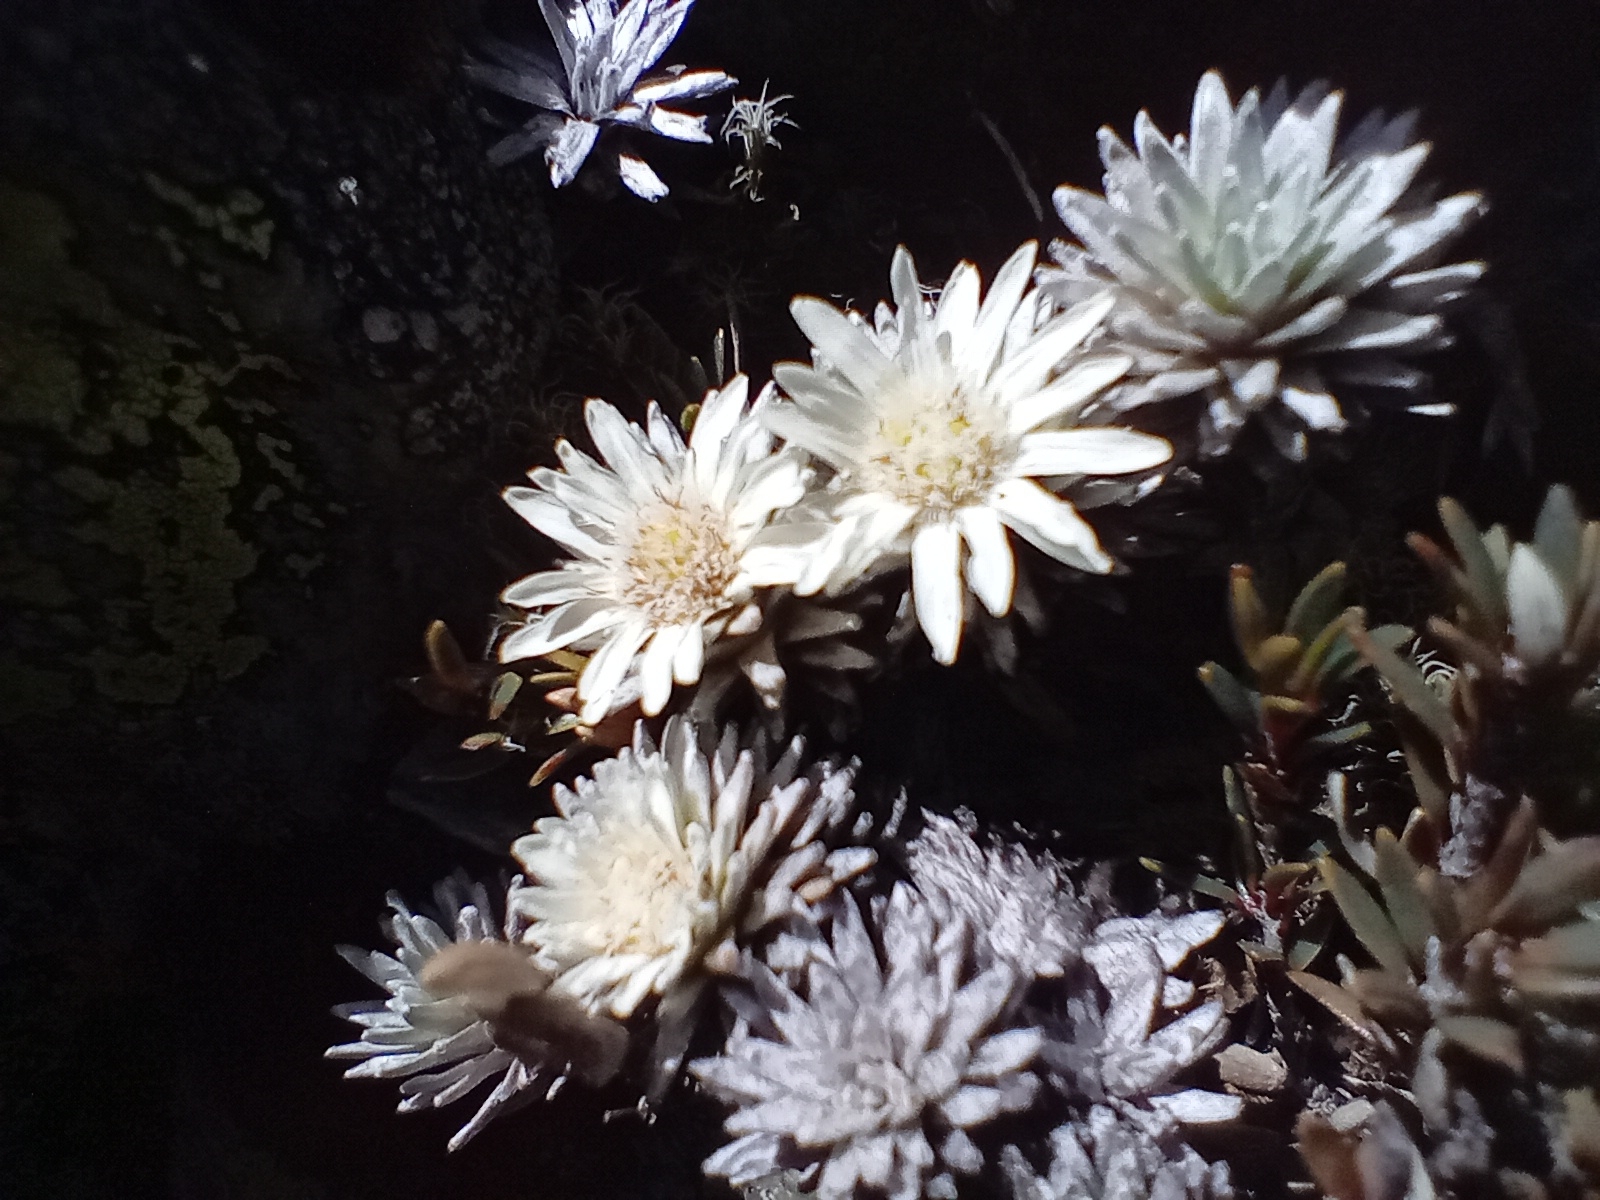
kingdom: Plantae
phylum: Tracheophyta
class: Magnoliopsida
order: Asterales
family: Asteraceae
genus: Raoulia
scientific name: Raoulia grandiflora
